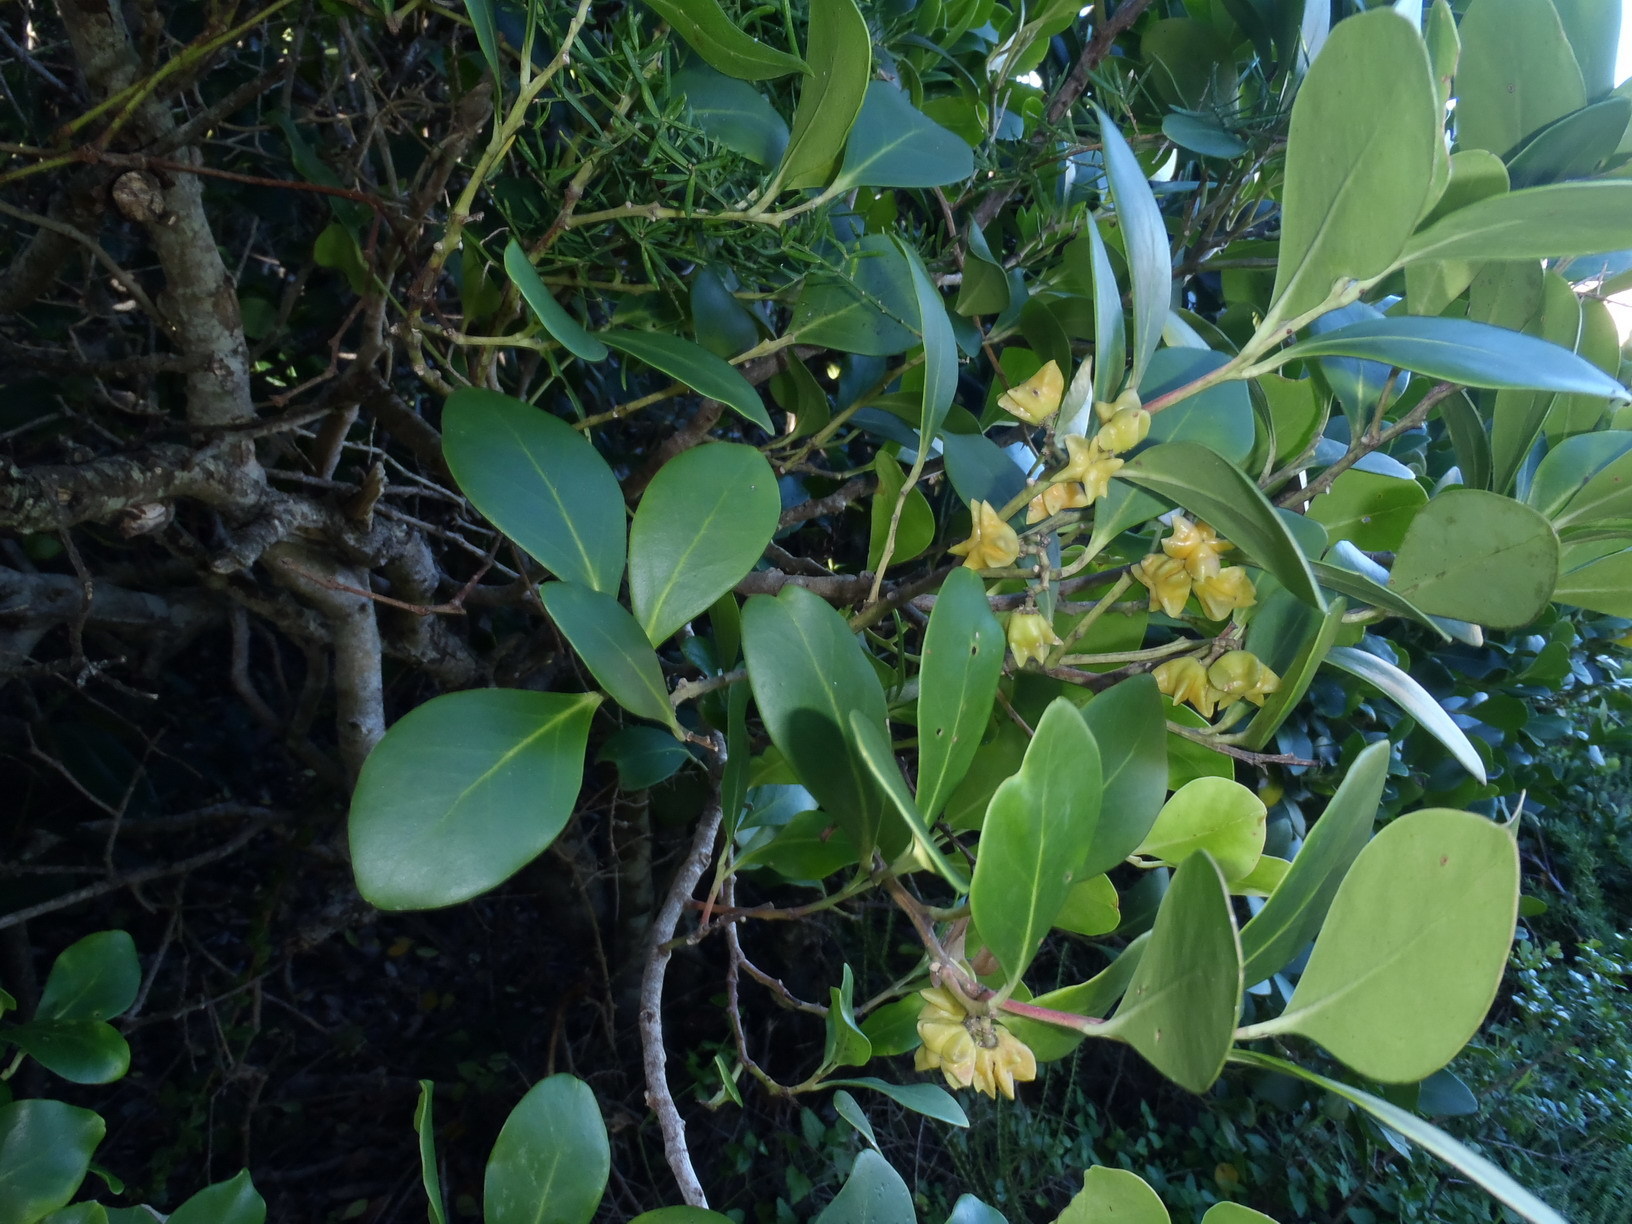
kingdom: Plantae
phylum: Tracheophyta
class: Magnoliopsida
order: Celastrales
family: Celastraceae
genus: Pterocelastrus
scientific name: Pterocelastrus tricuspidatus
